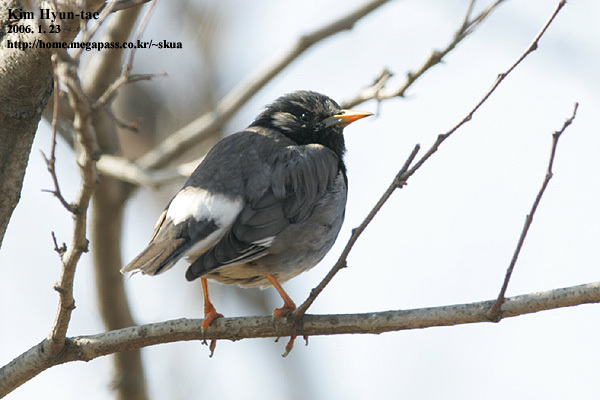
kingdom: Animalia
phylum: Chordata
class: Aves
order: Passeriformes
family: Sturnidae
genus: Spodiopsar
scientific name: Spodiopsar cineraceus
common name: White-cheeked starling
